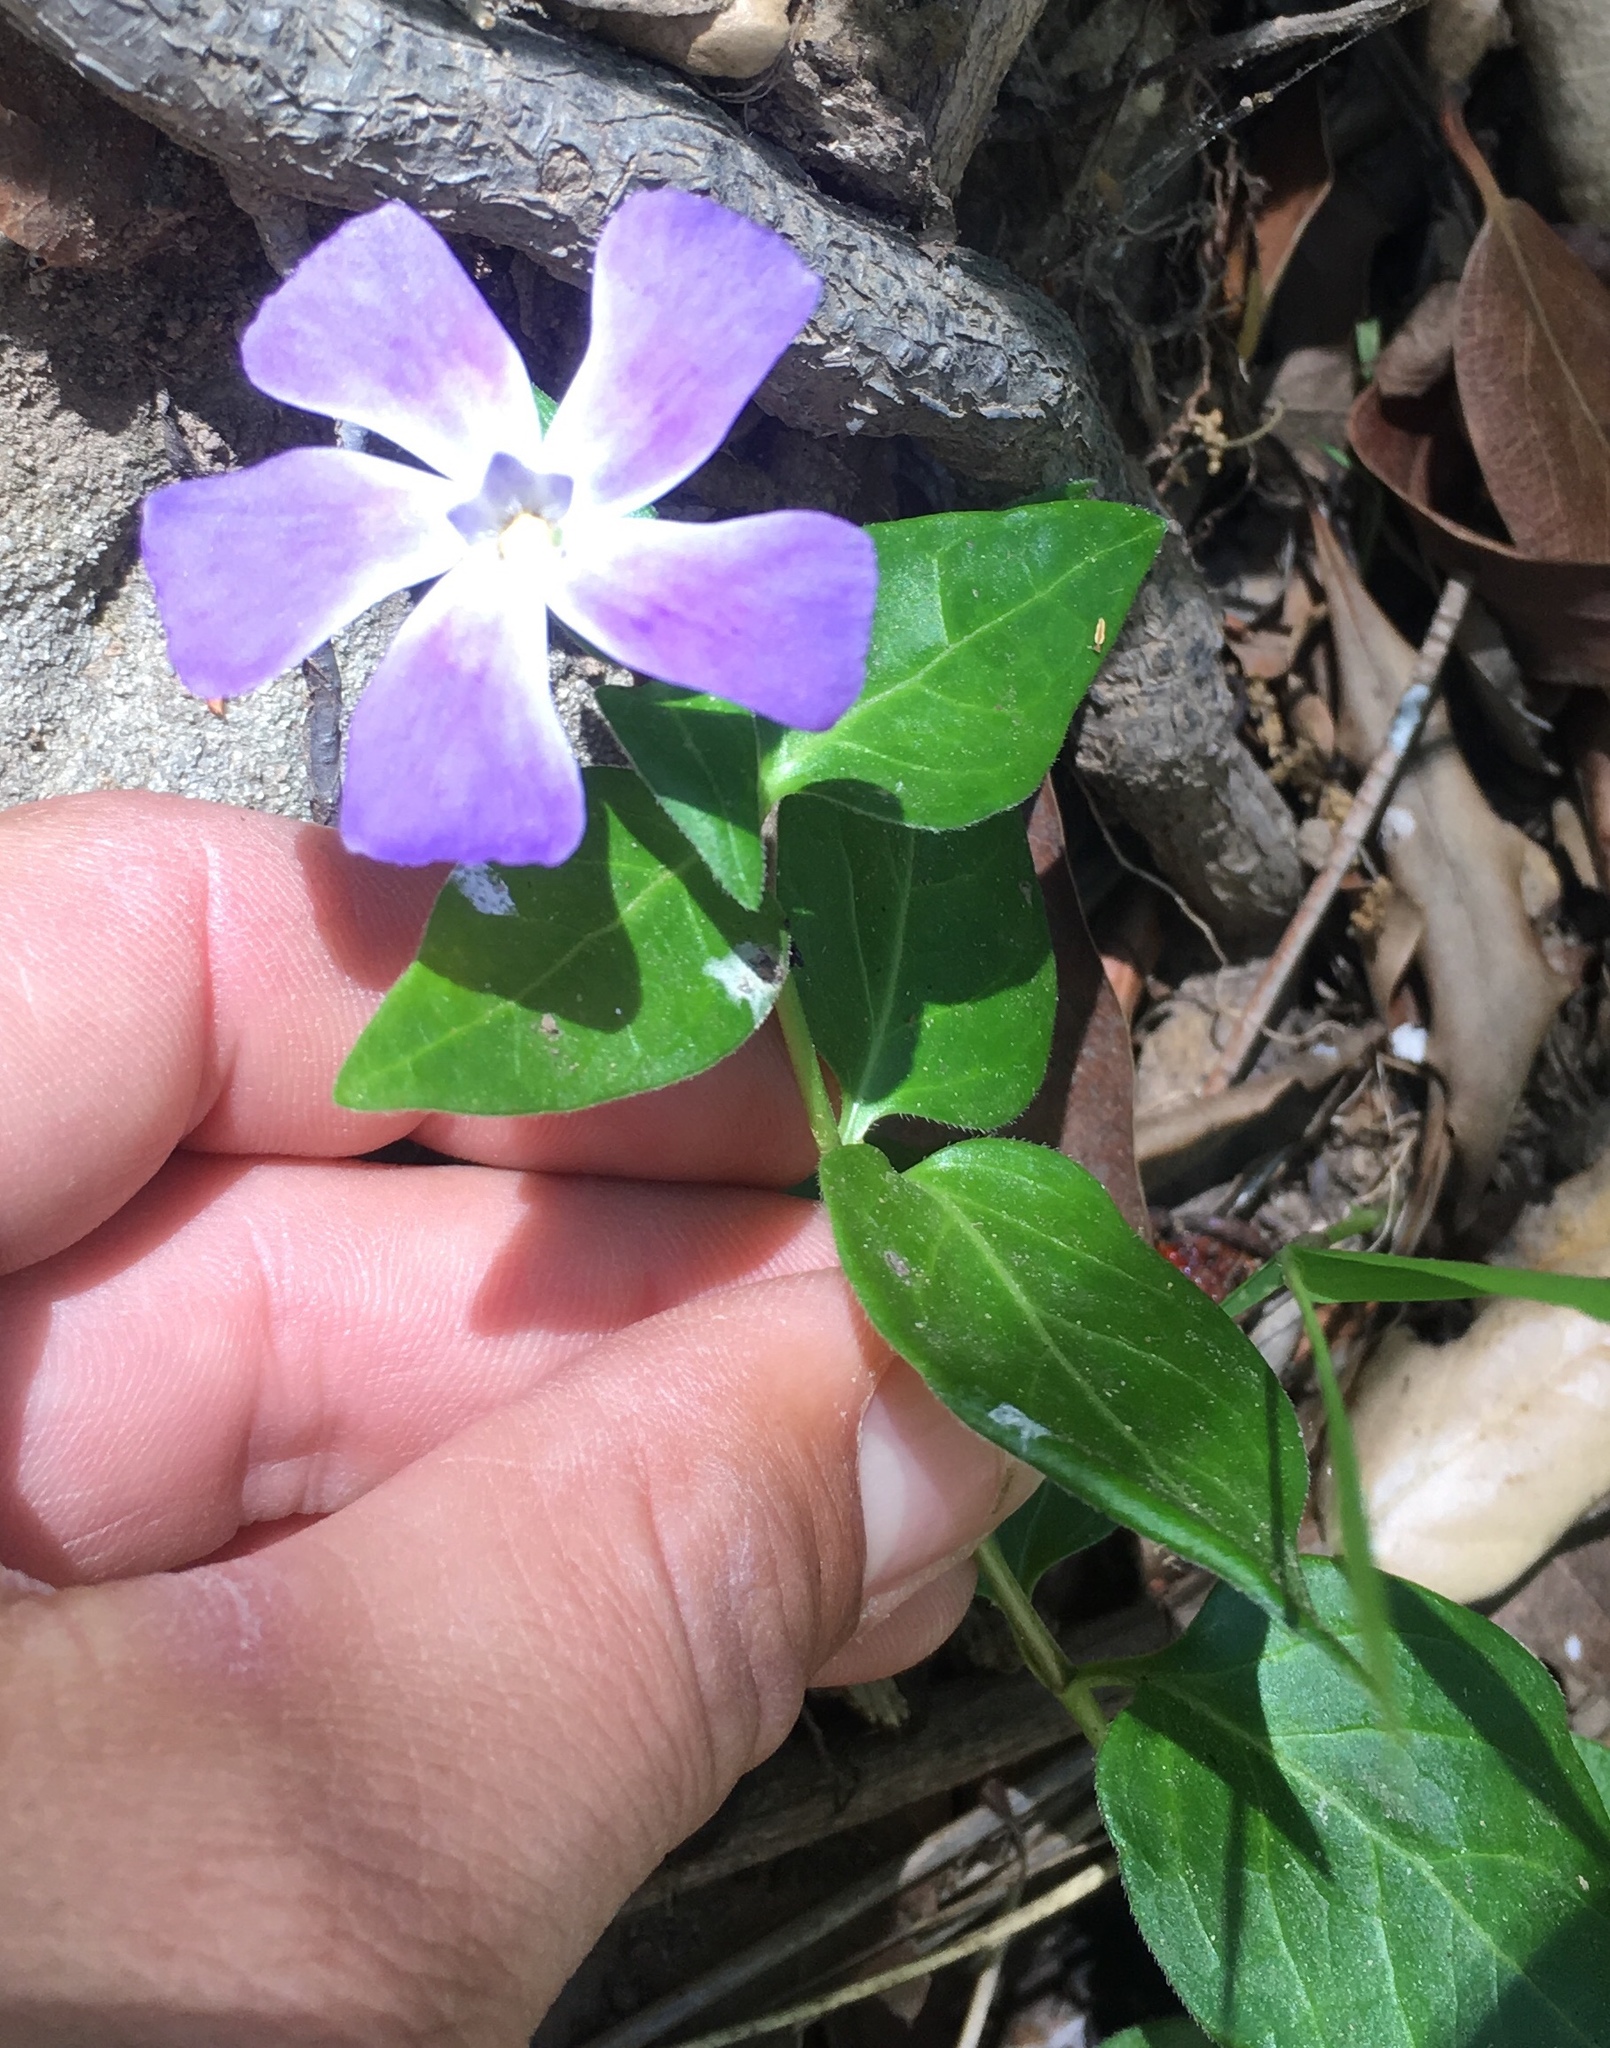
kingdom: Plantae
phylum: Tracheophyta
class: Magnoliopsida
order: Gentianales
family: Apocynaceae
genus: Vinca
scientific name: Vinca major
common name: Greater periwinkle
